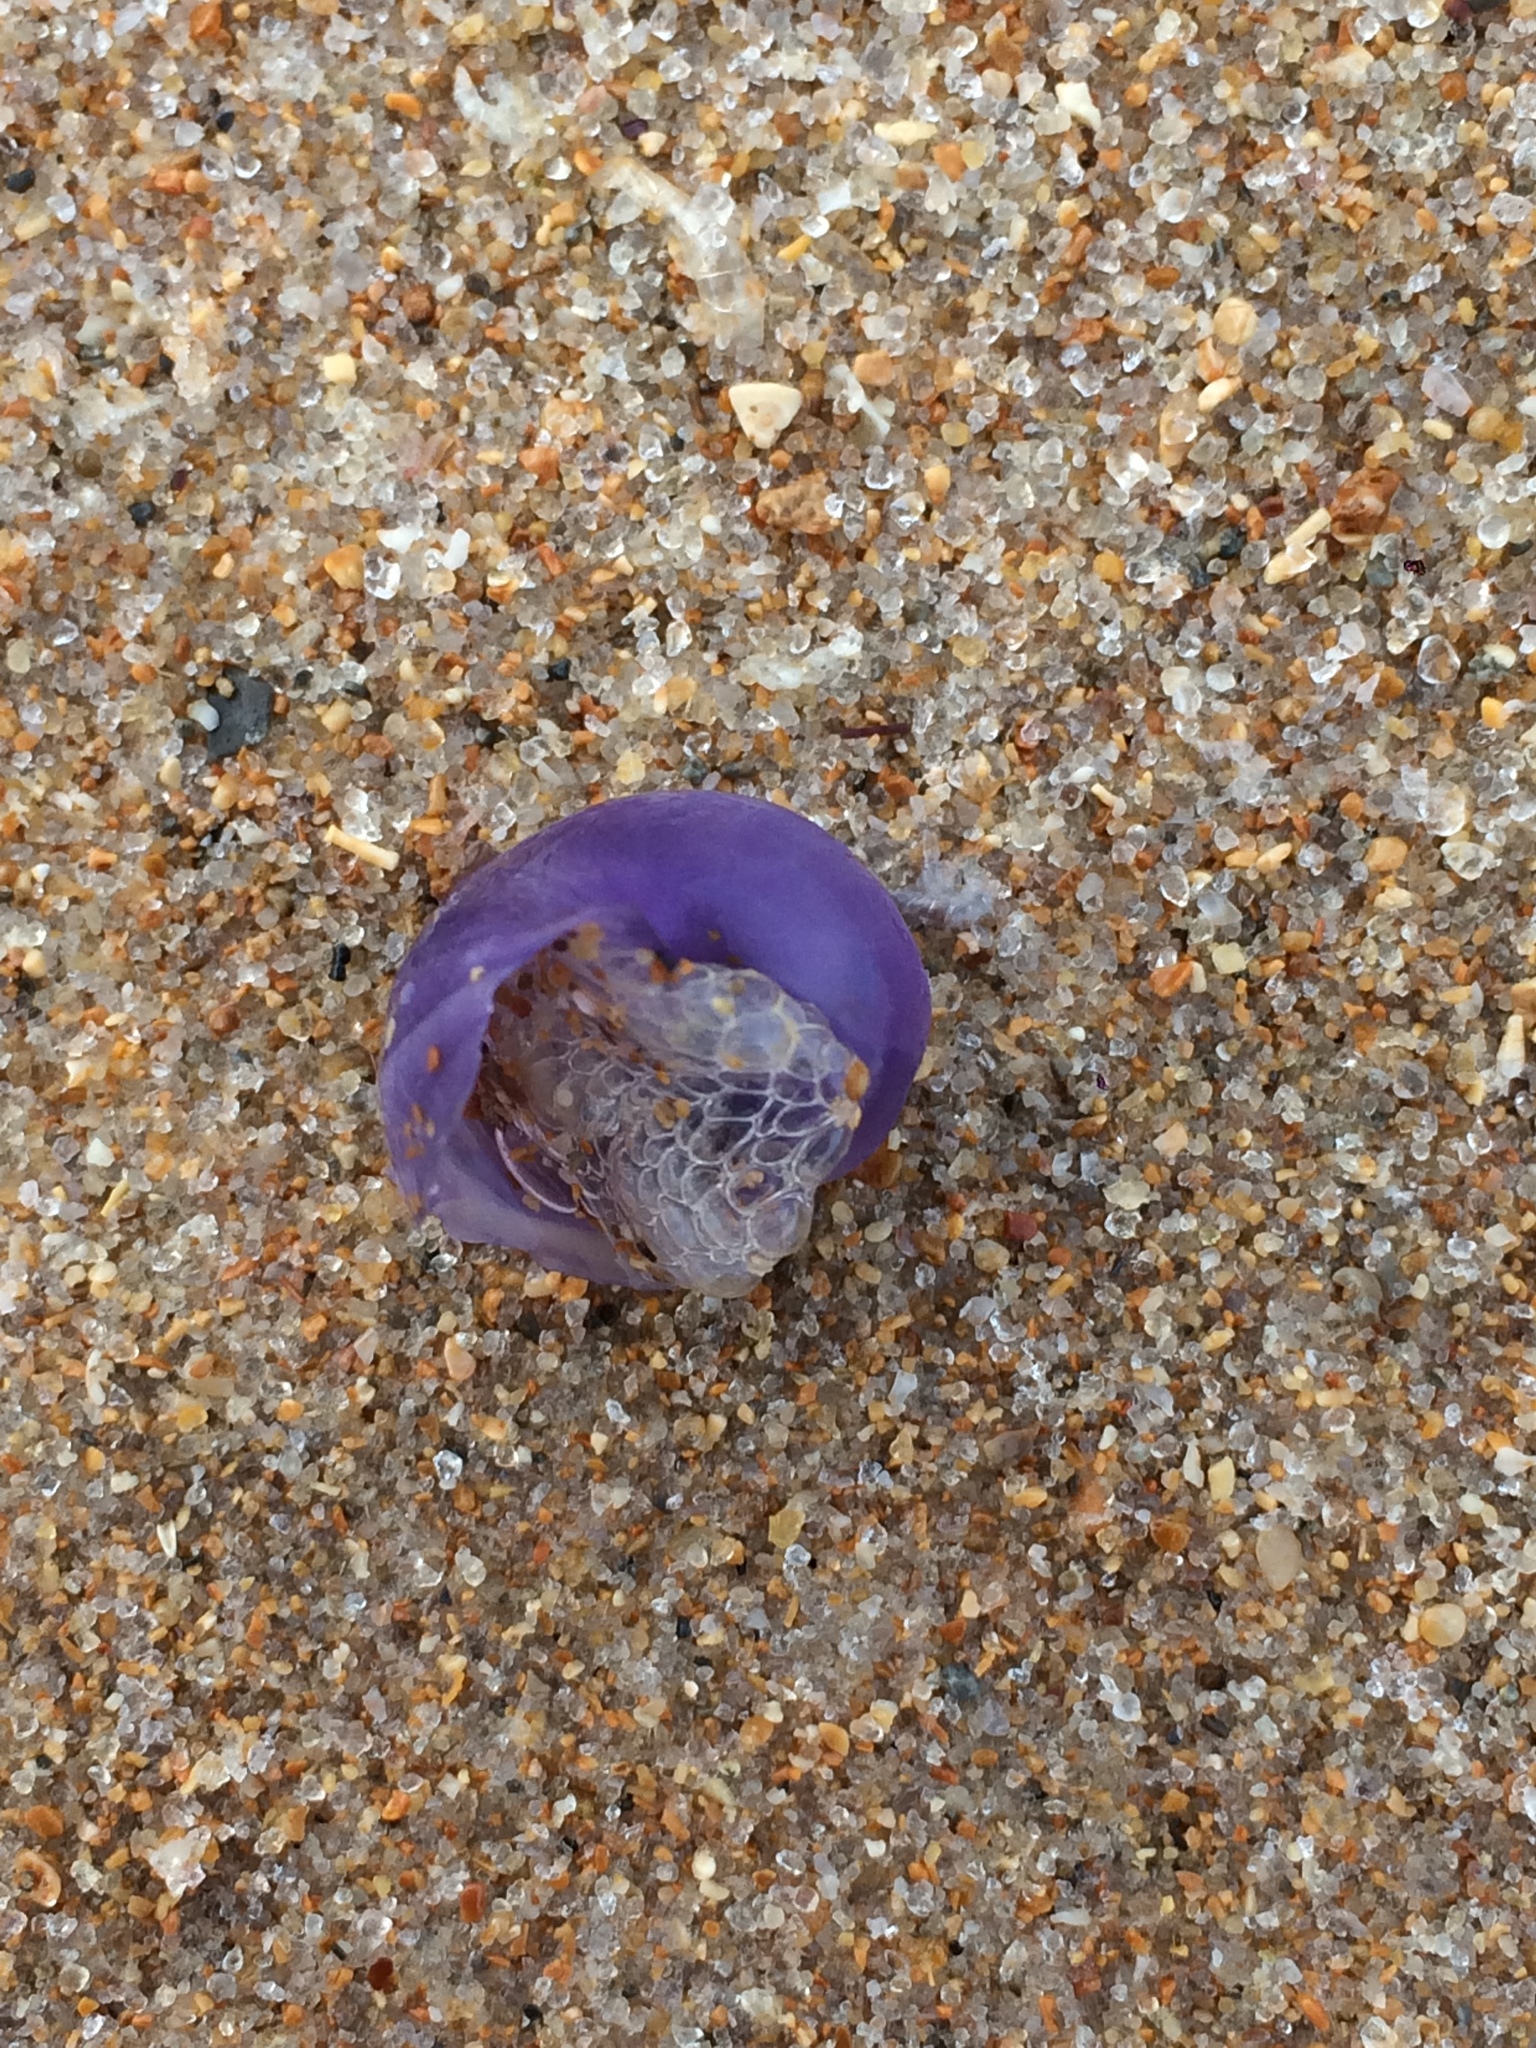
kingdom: Animalia
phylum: Mollusca
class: Gastropoda
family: Epitoniidae
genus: Janthina
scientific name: Janthina globosa
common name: Elongate janthina
